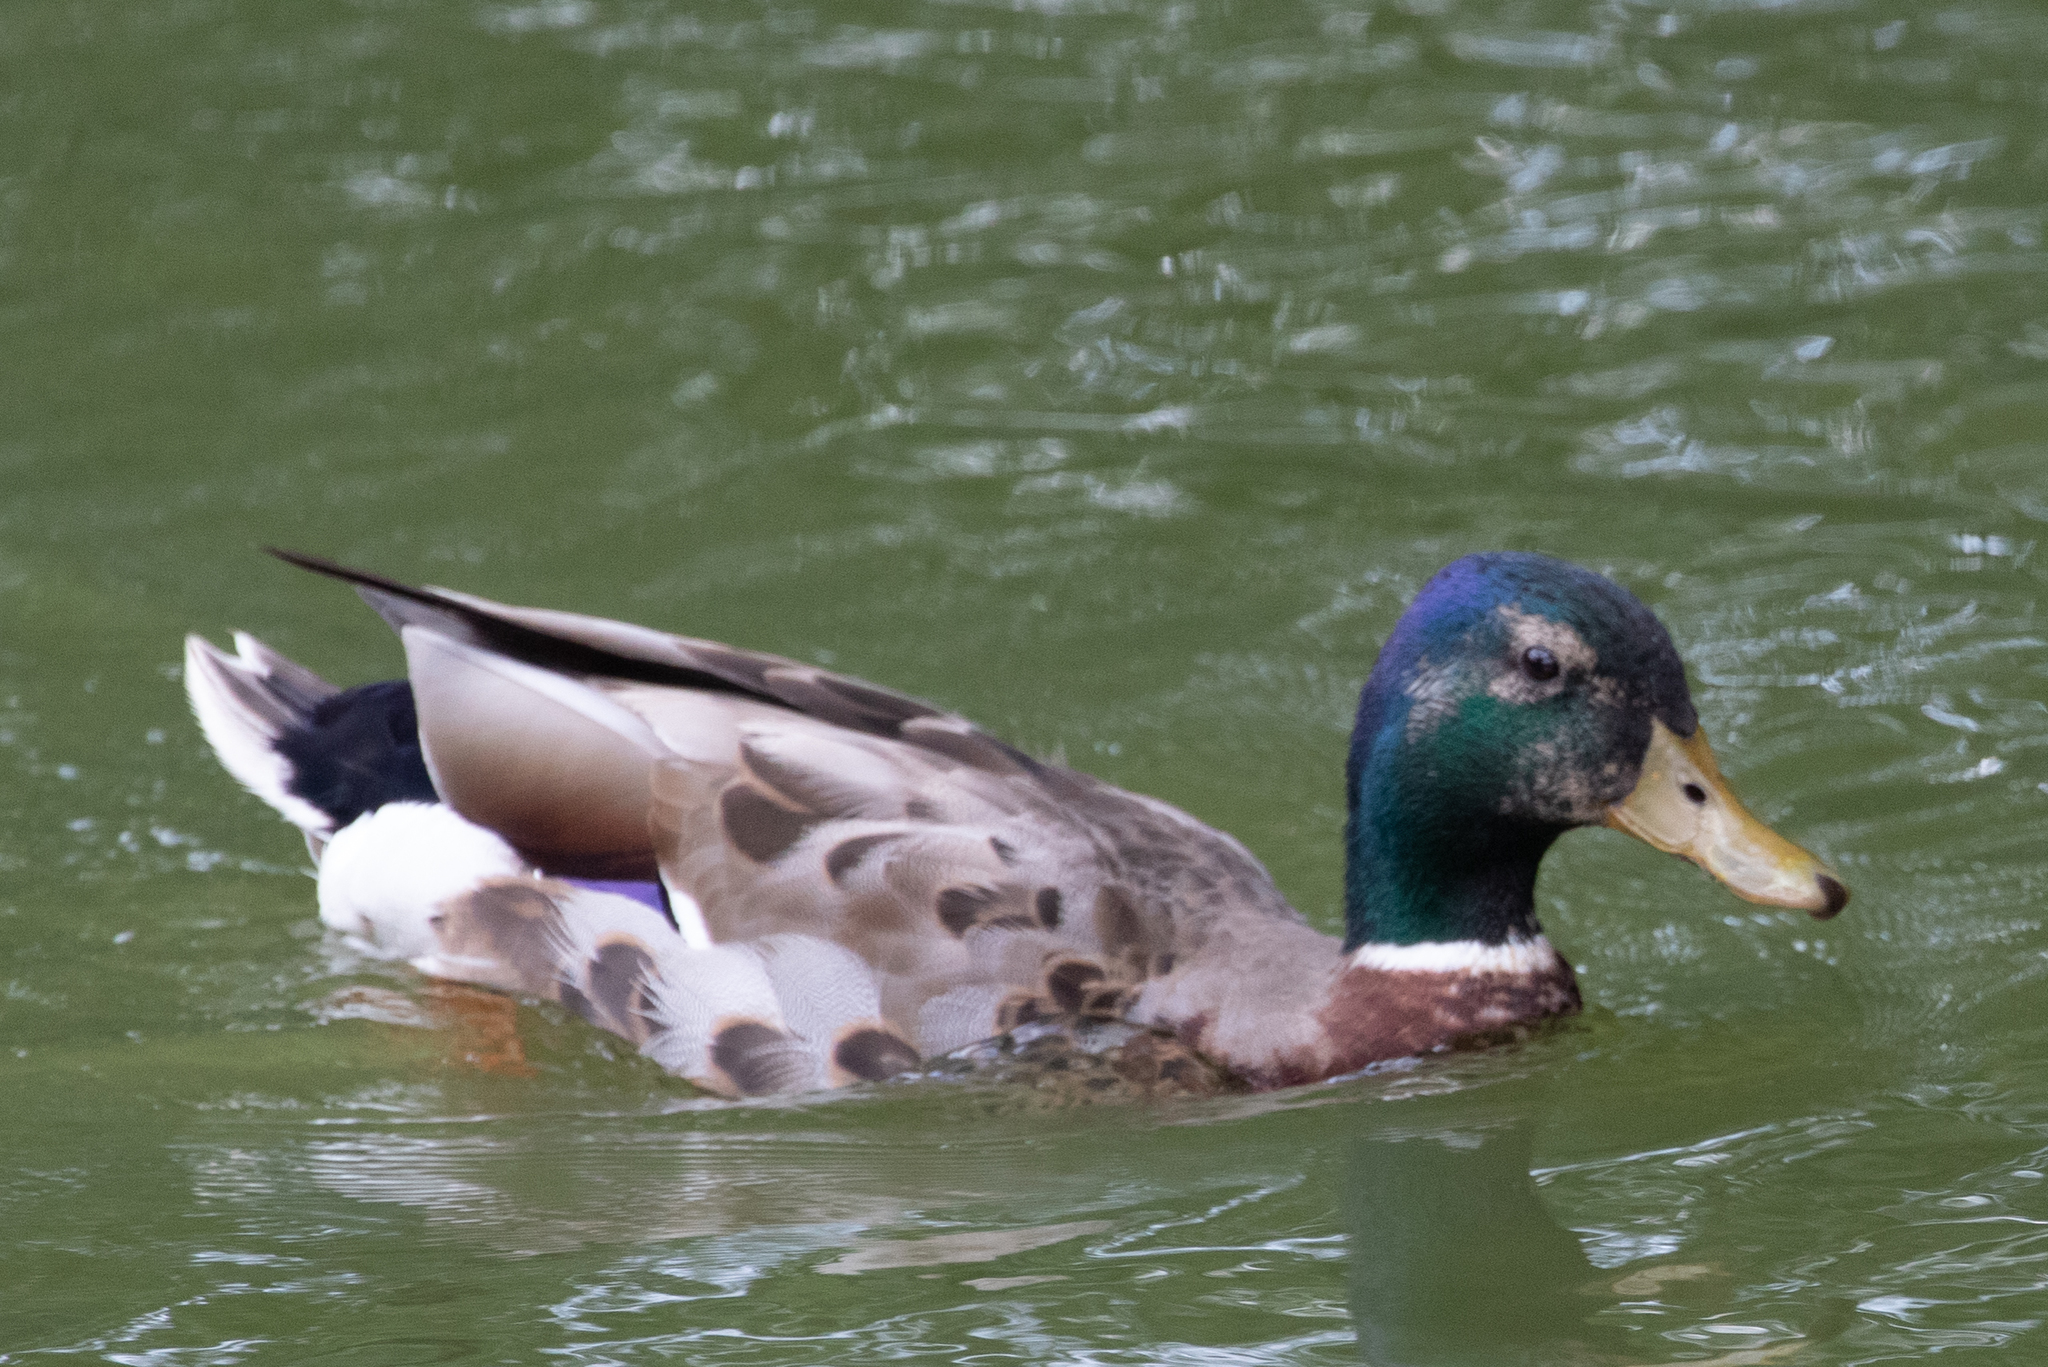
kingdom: Animalia
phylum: Chordata
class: Aves
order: Anseriformes
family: Anatidae
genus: Anas
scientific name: Anas platyrhynchos
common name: Mallard
